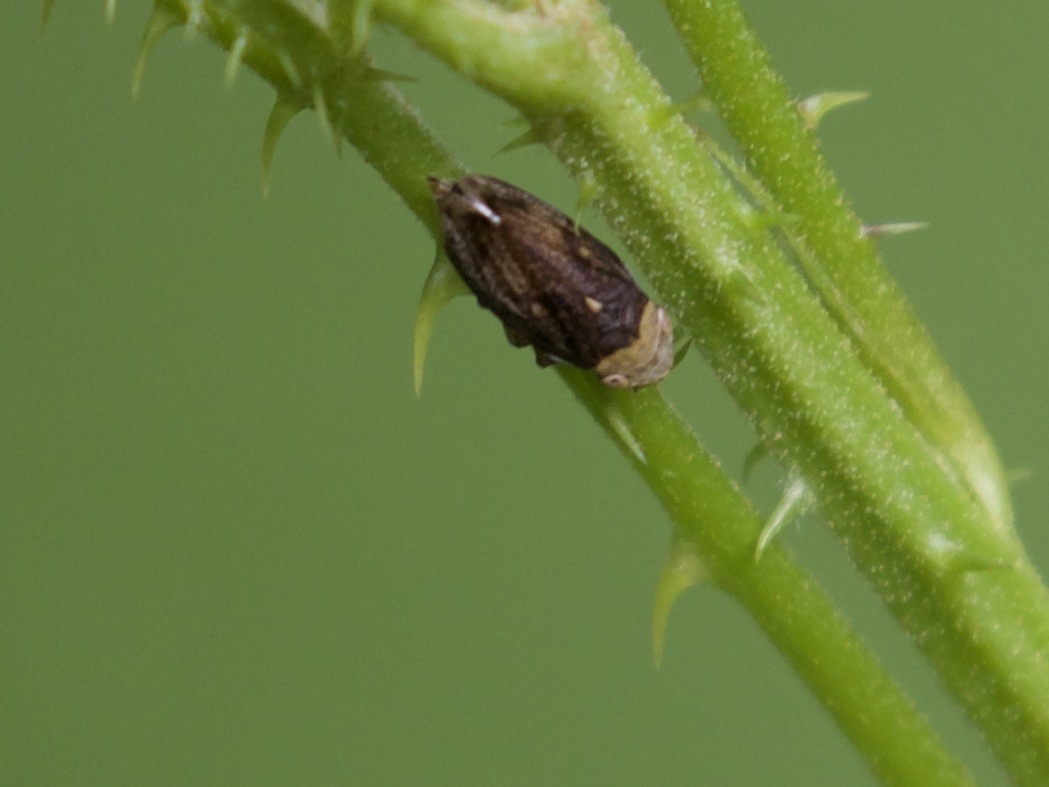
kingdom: Animalia
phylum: Arthropoda
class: Insecta
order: Hemiptera
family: Aphrophoridae
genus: Philaenus
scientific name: Philaenus spumarius
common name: Meadow spittlebug
